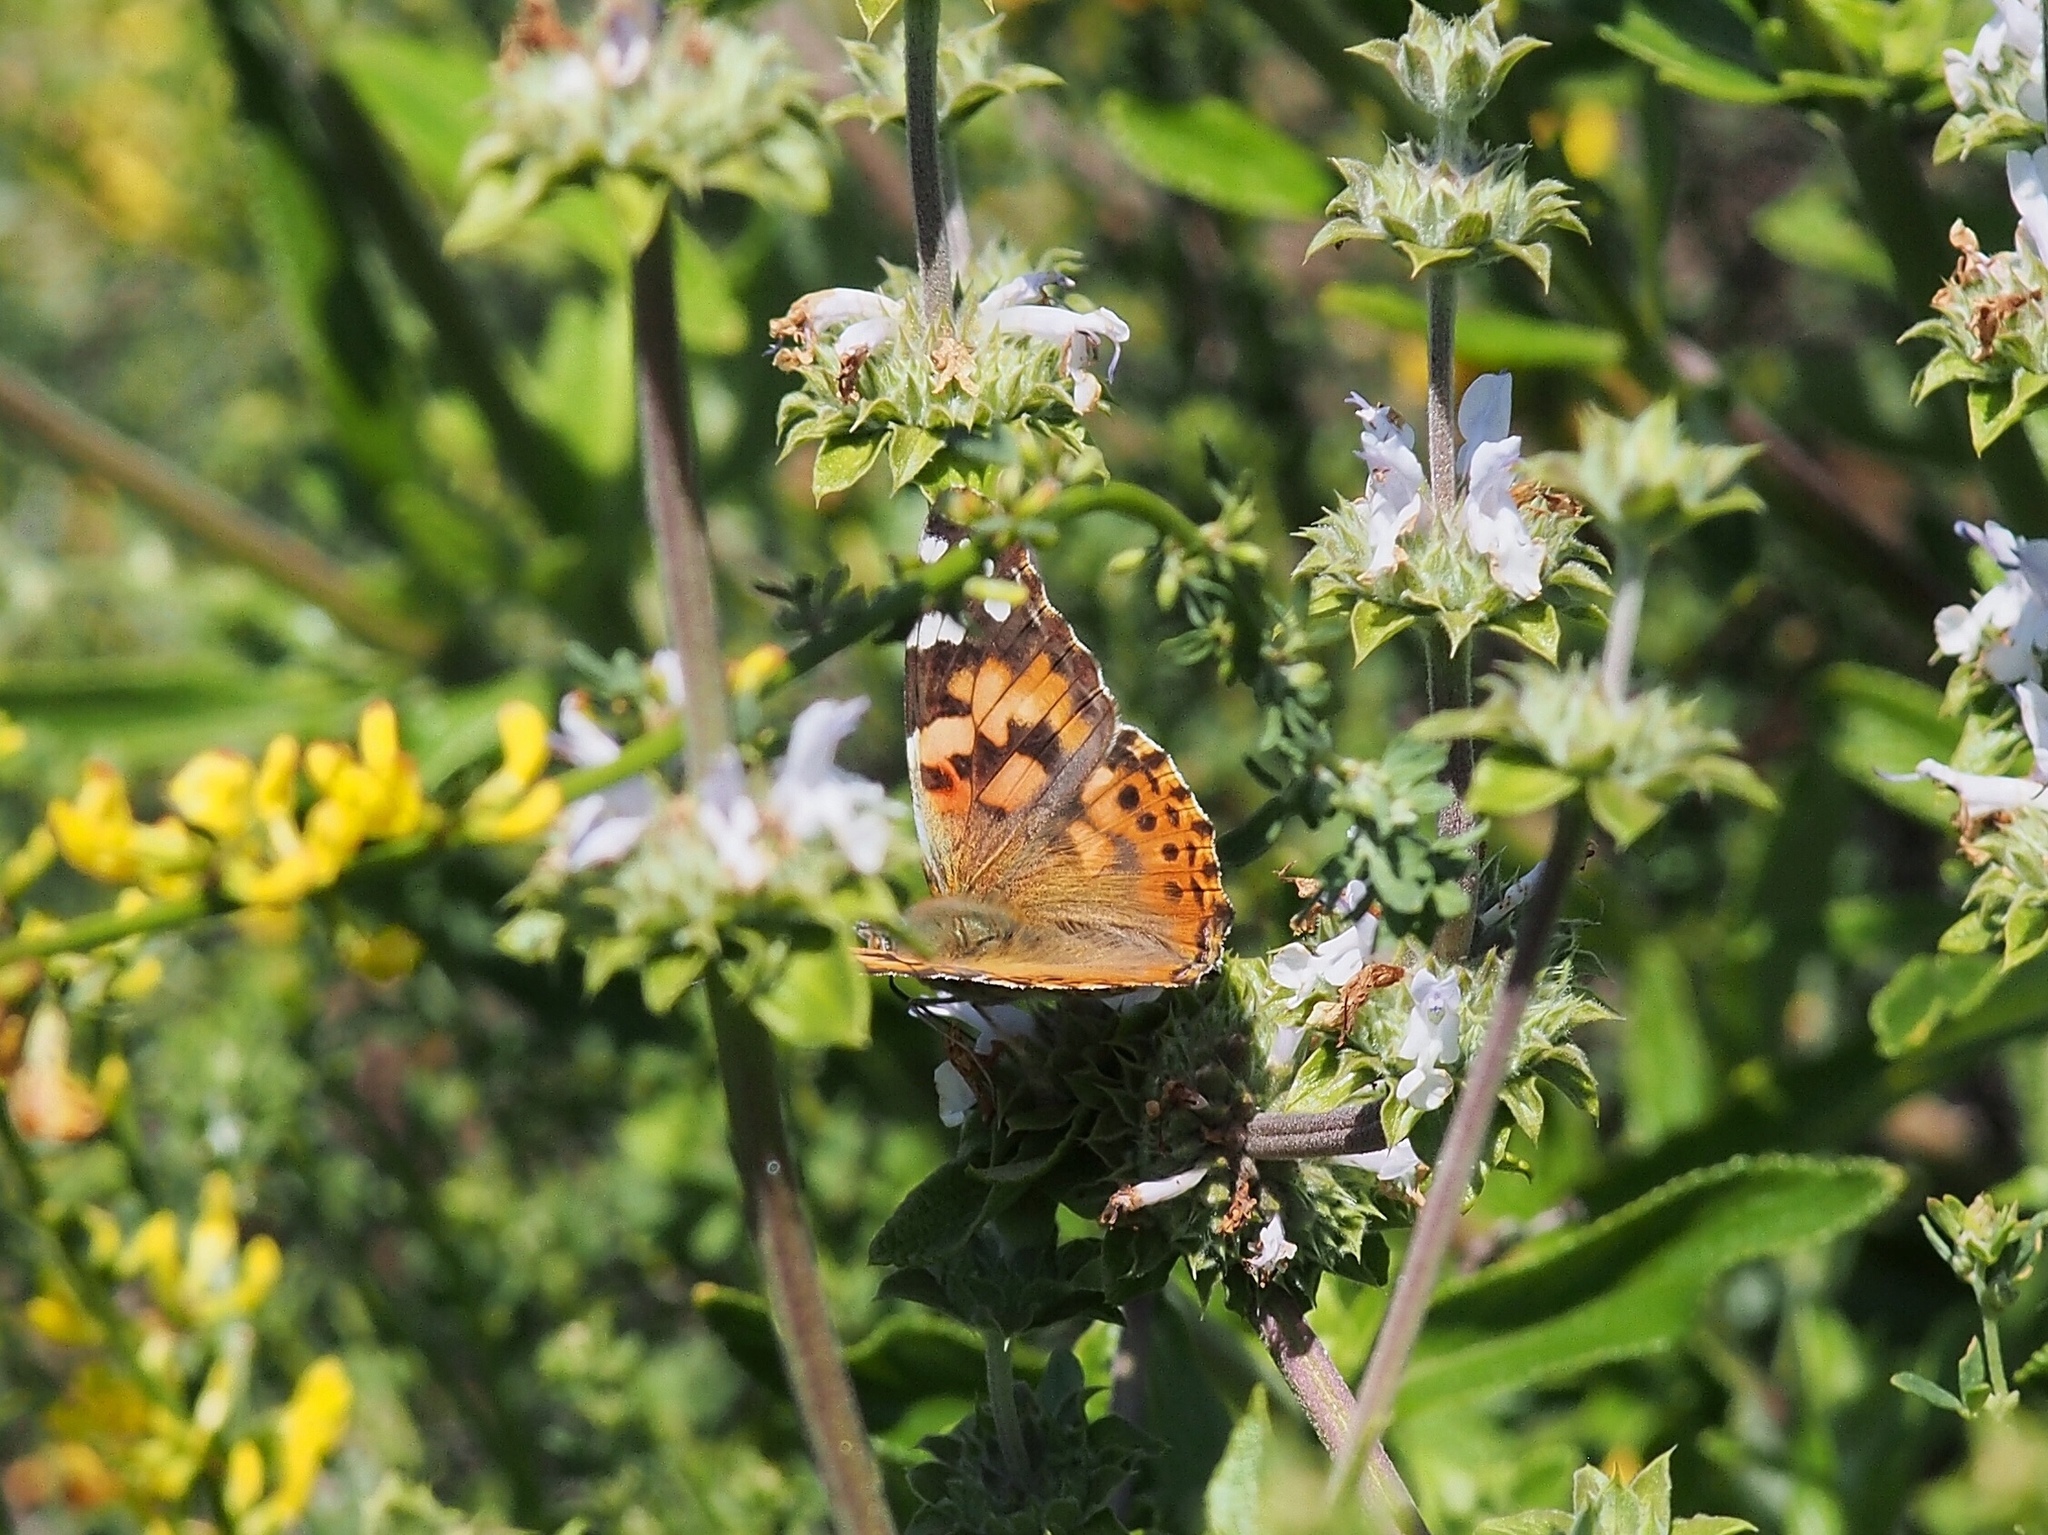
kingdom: Animalia
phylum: Arthropoda
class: Insecta
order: Lepidoptera
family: Nymphalidae
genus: Vanessa
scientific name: Vanessa cardui
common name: Painted lady
